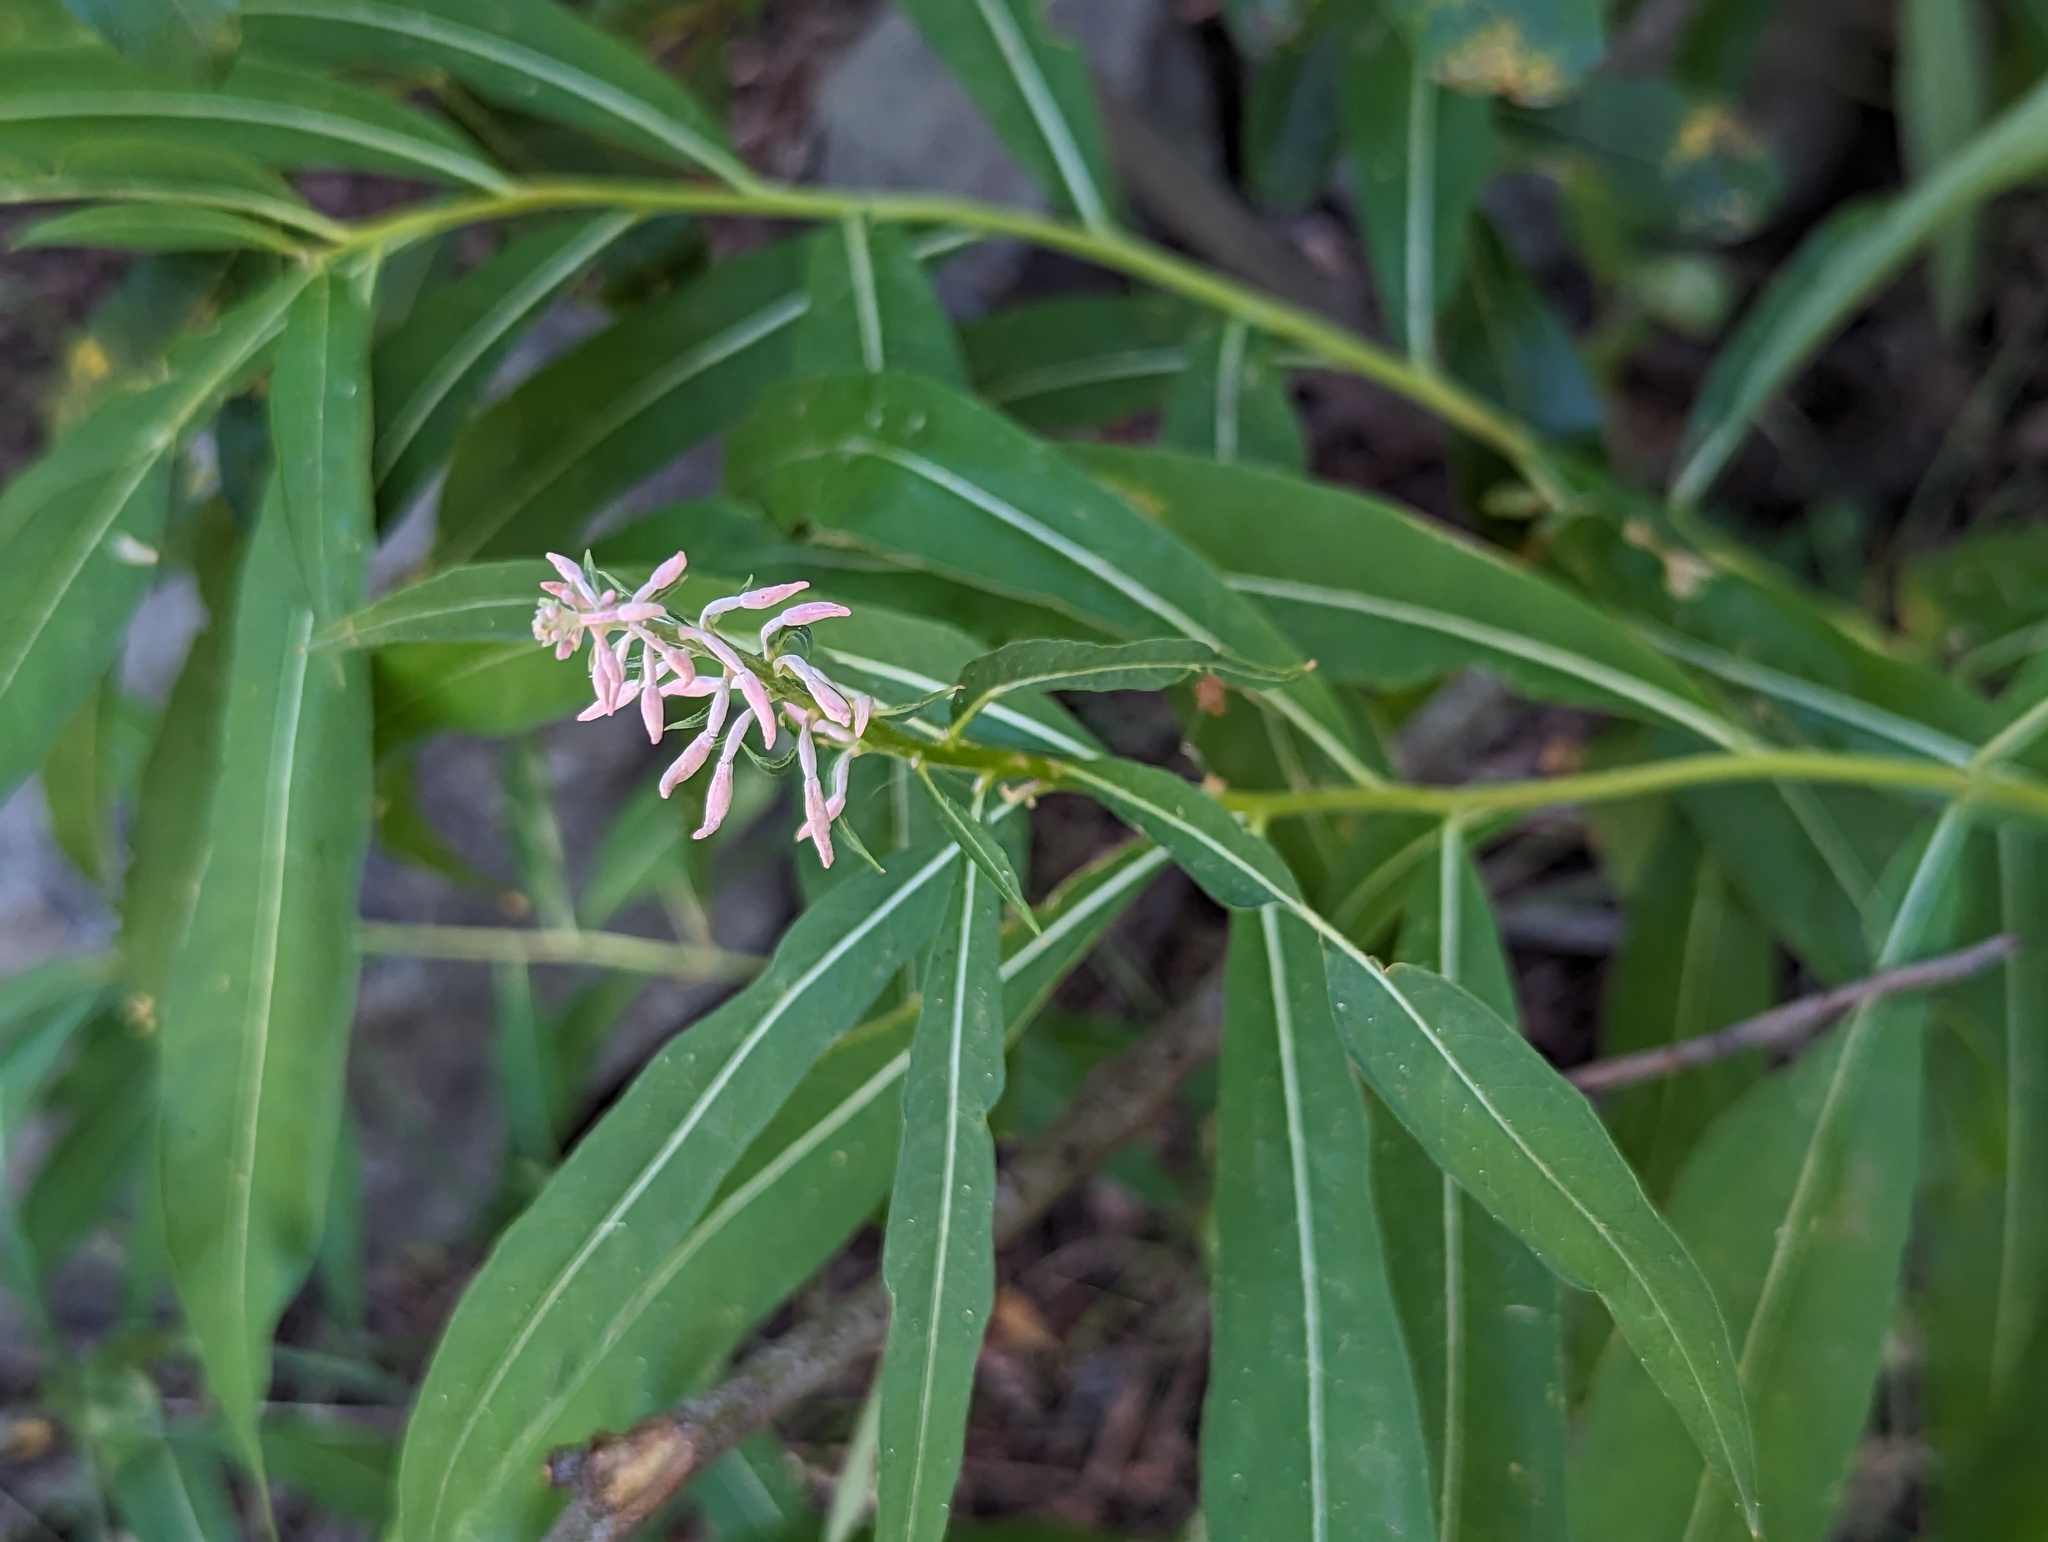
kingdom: Plantae
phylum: Tracheophyta
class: Magnoliopsida
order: Myrtales
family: Onagraceae
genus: Chamaenerion
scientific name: Chamaenerion angustifolium
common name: Fireweed
